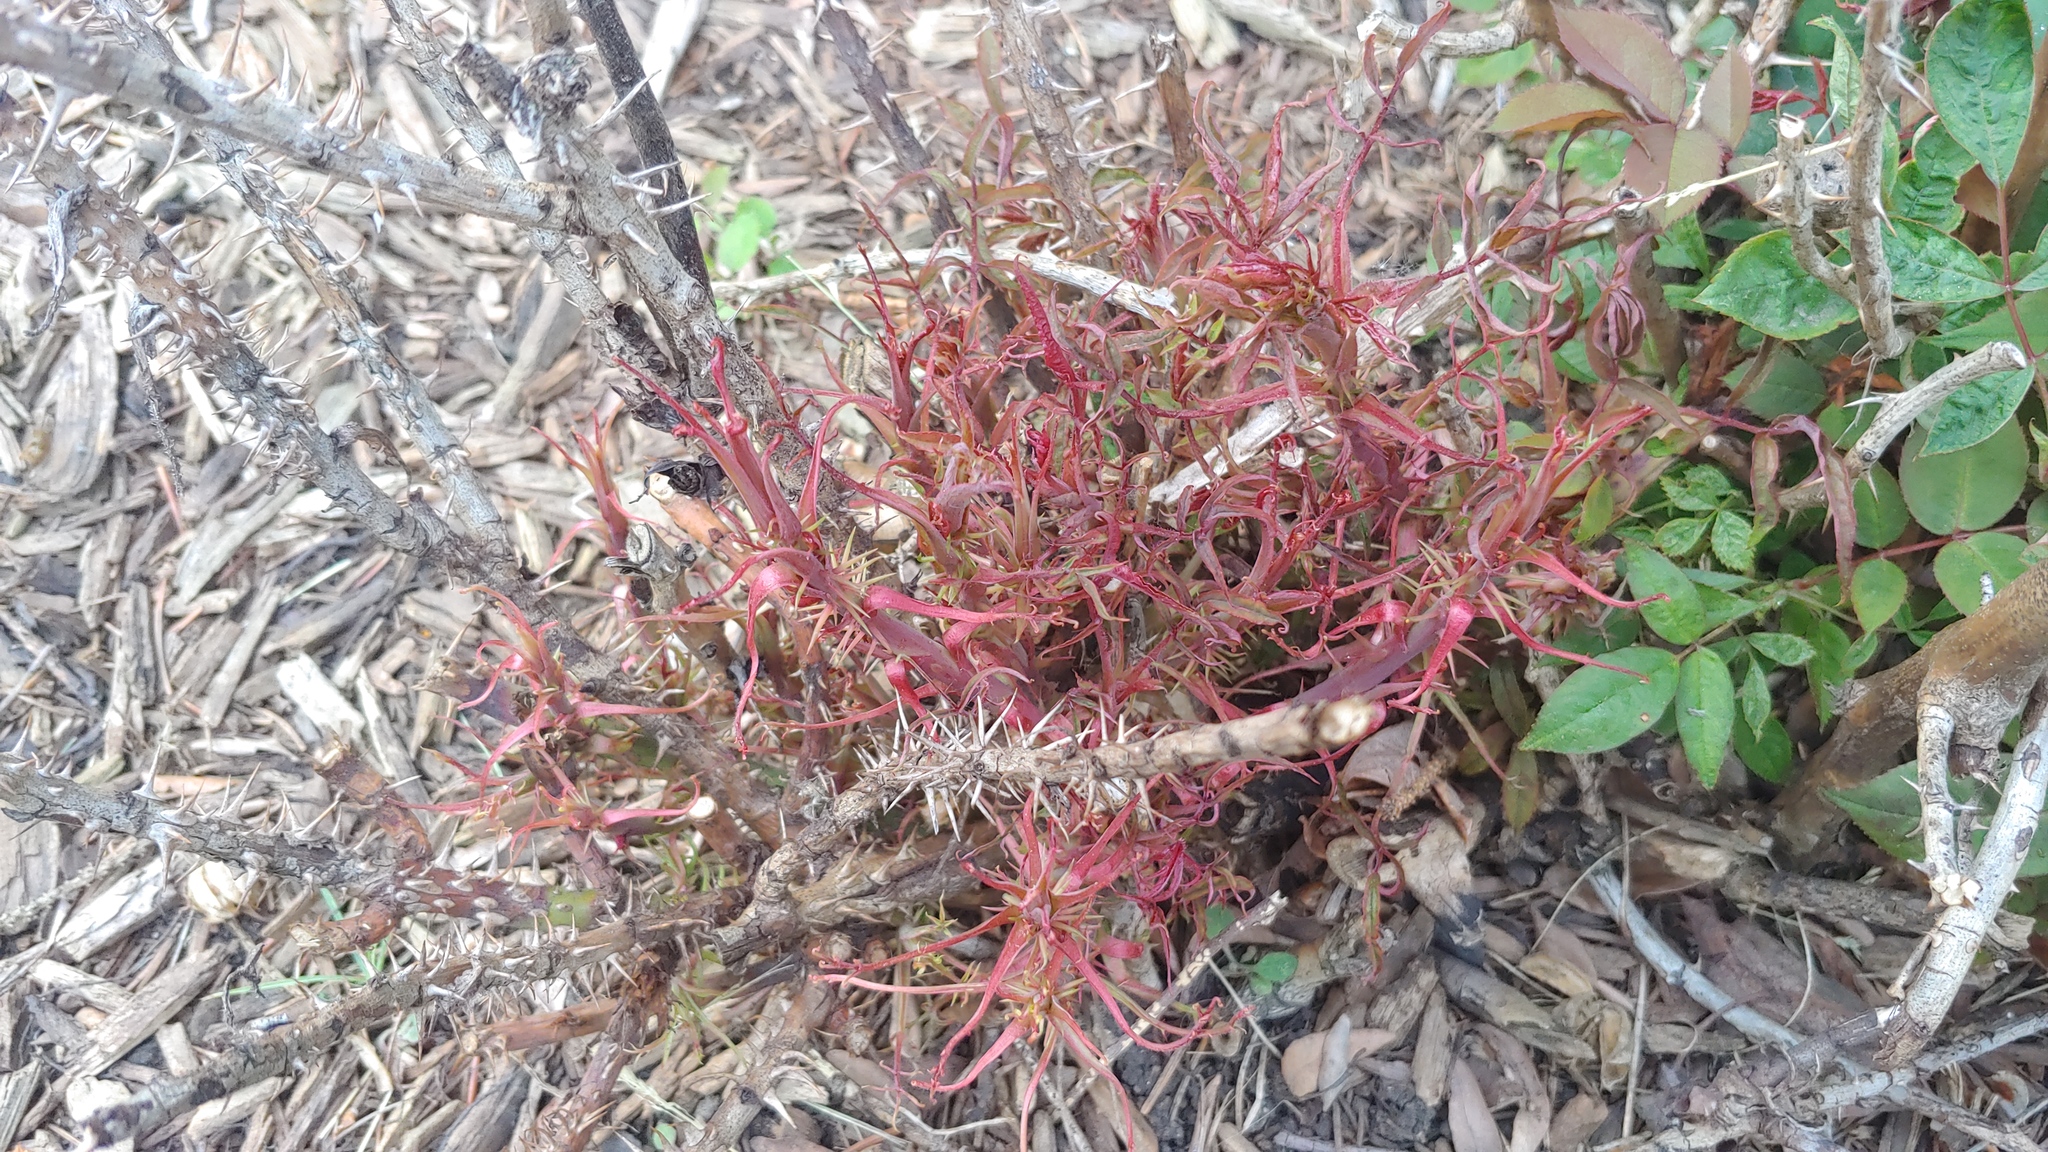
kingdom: Viruses
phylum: Negarnaviricota
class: Ellioviricetes
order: Bunyavirales
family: Fimoviridae
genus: Emaravirus
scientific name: Emaravirus rosae
